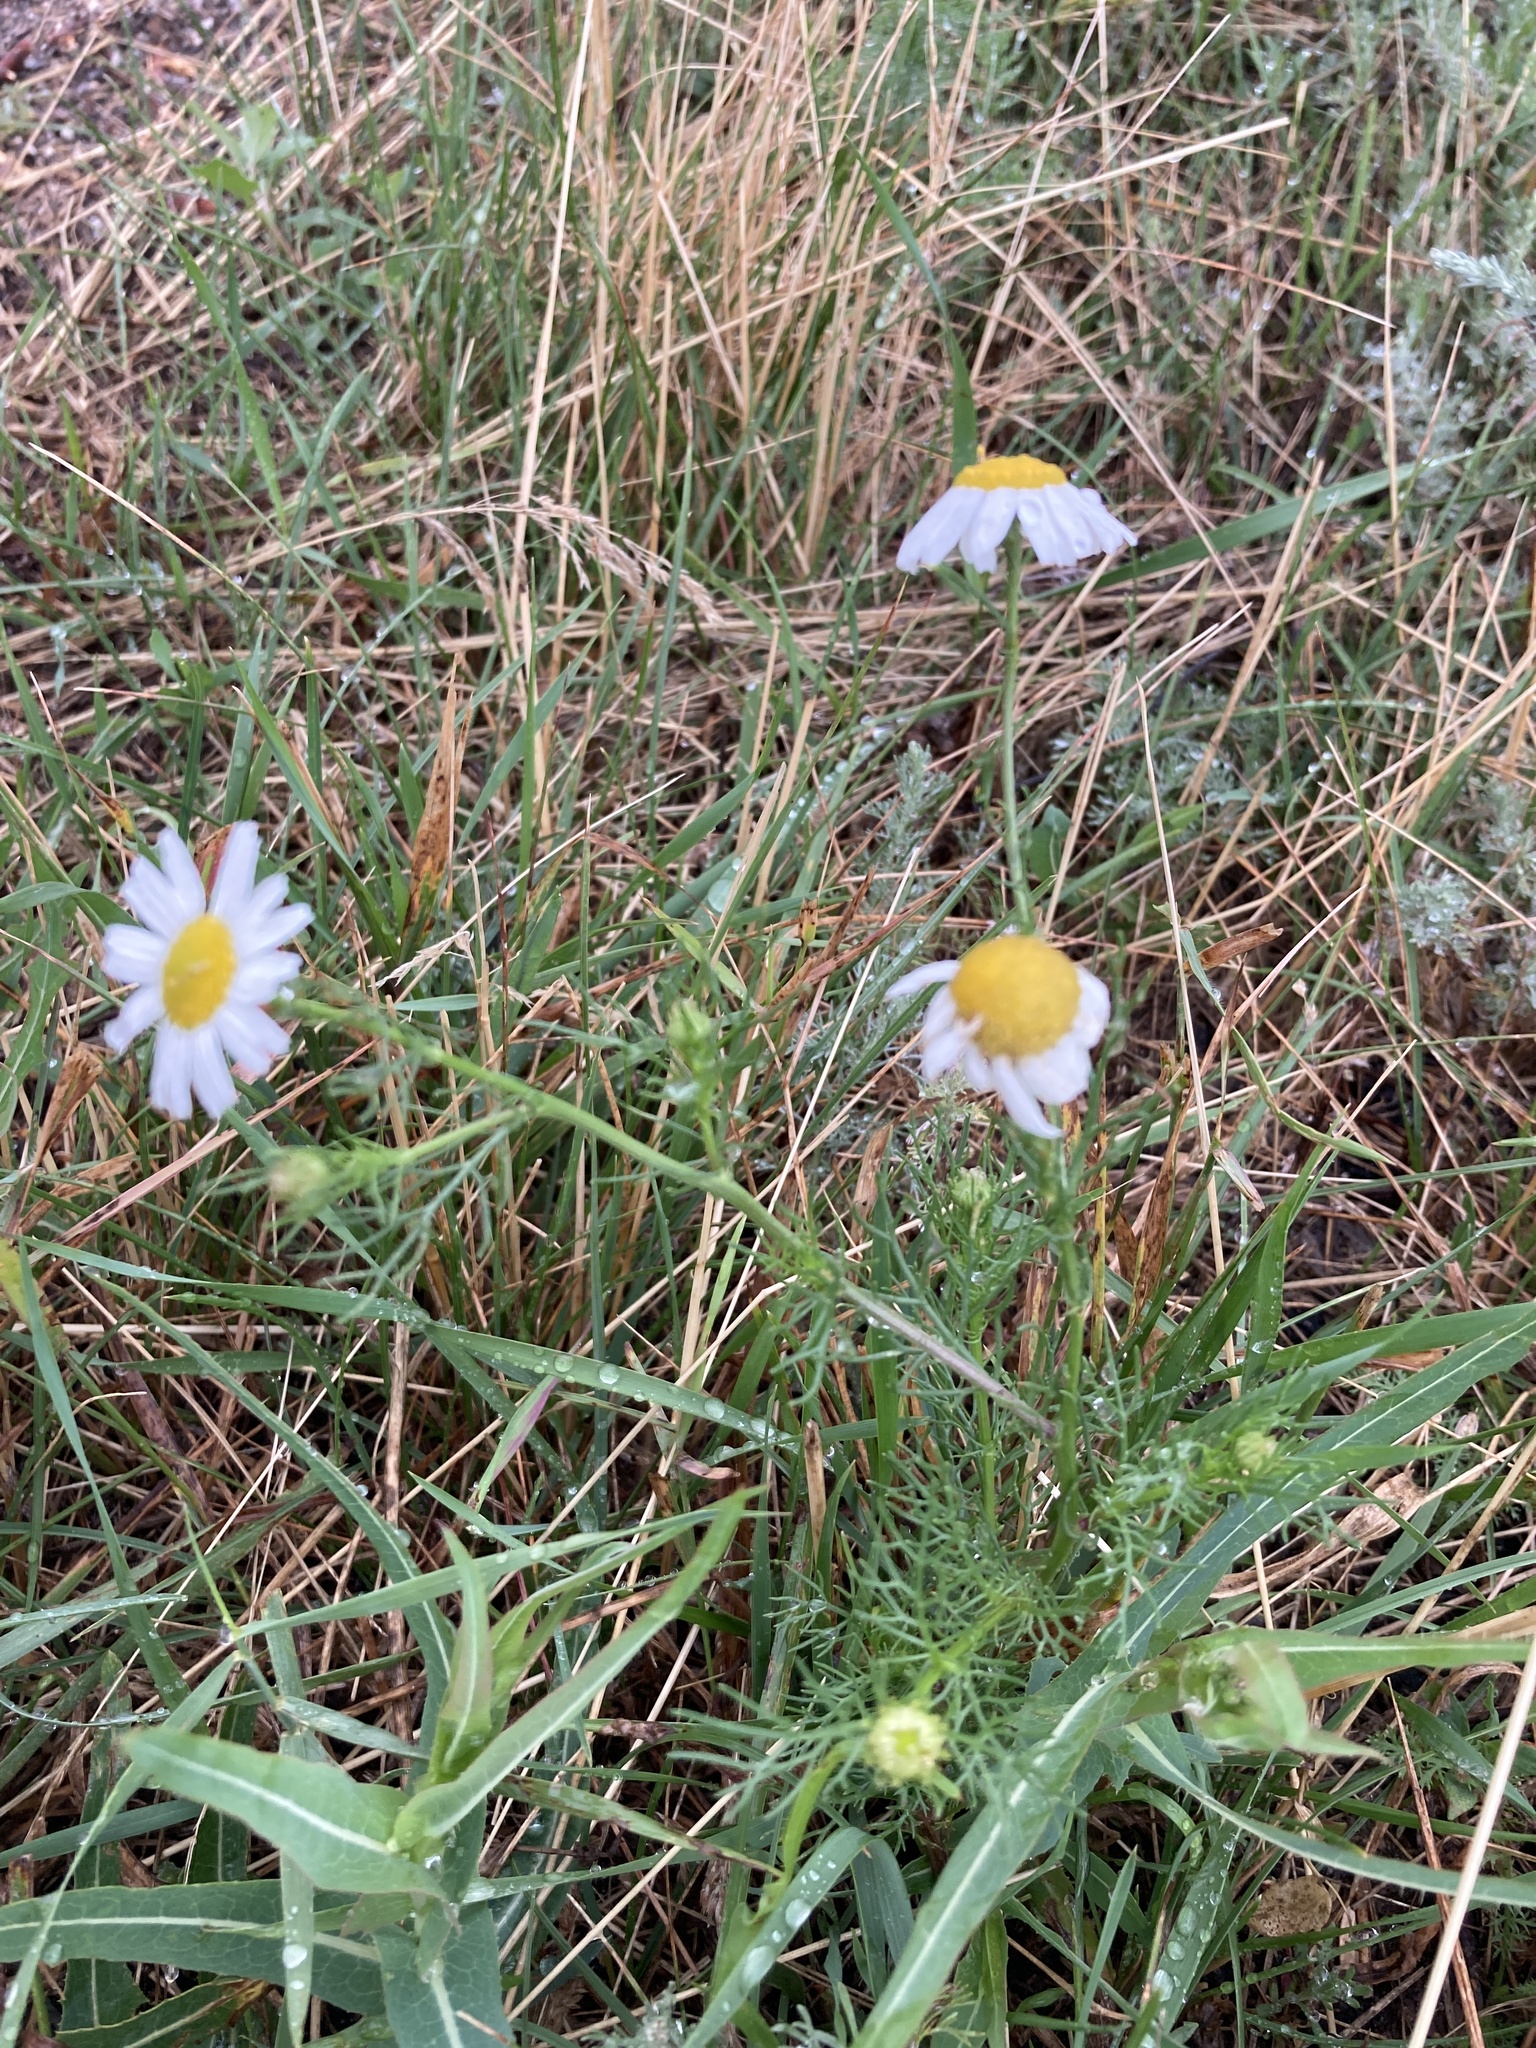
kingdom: Plantae
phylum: Tracheophyta
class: Magnoliopsida
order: Asterales
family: Asteraceae
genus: Tripleurospermum
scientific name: Tripleurospermum inodorum
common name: Scentless mayweed
